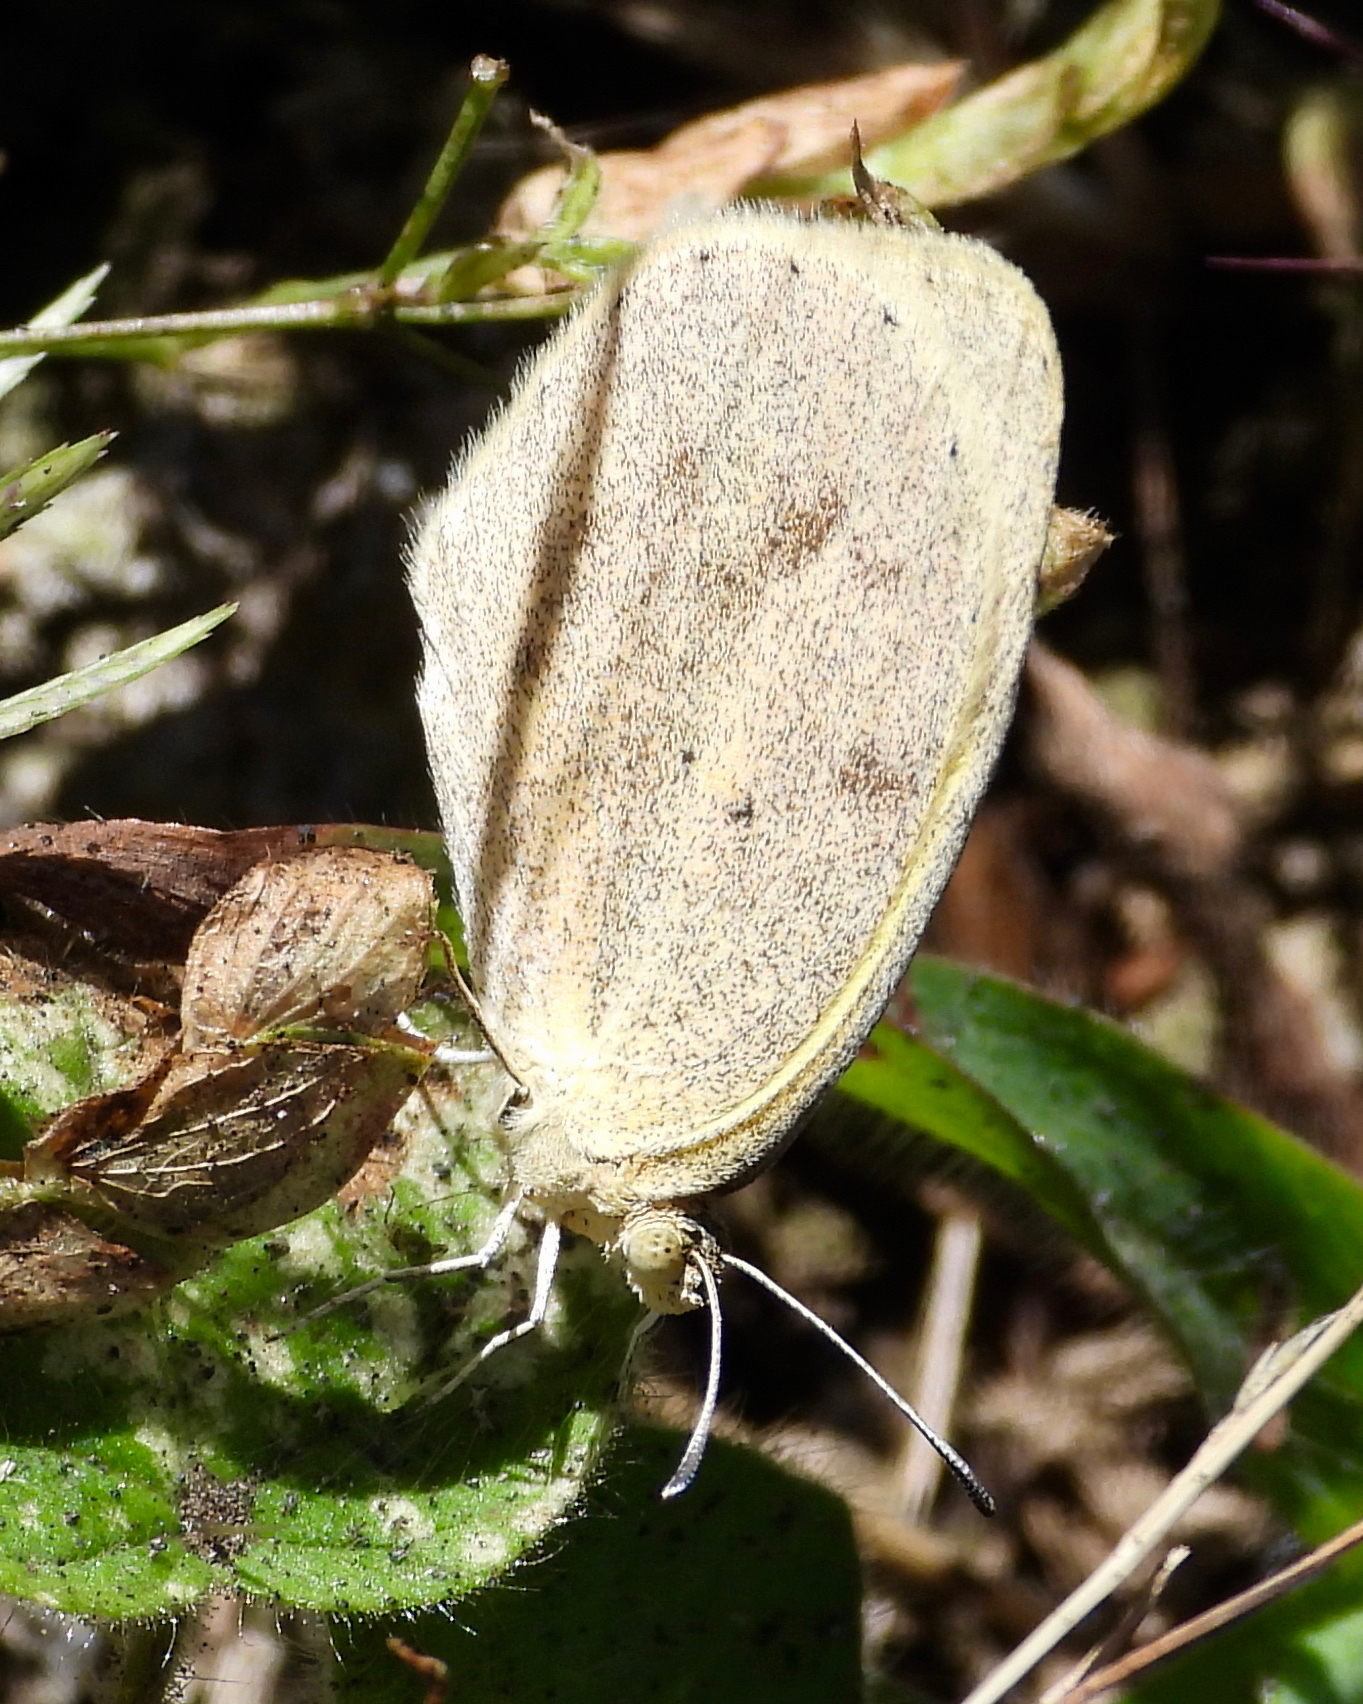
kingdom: Animalia
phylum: Arthropoda
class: Insecta
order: Lepidoptera
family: Pieridae
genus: Eurema
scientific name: Eurema daira
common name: Barred sulphur
